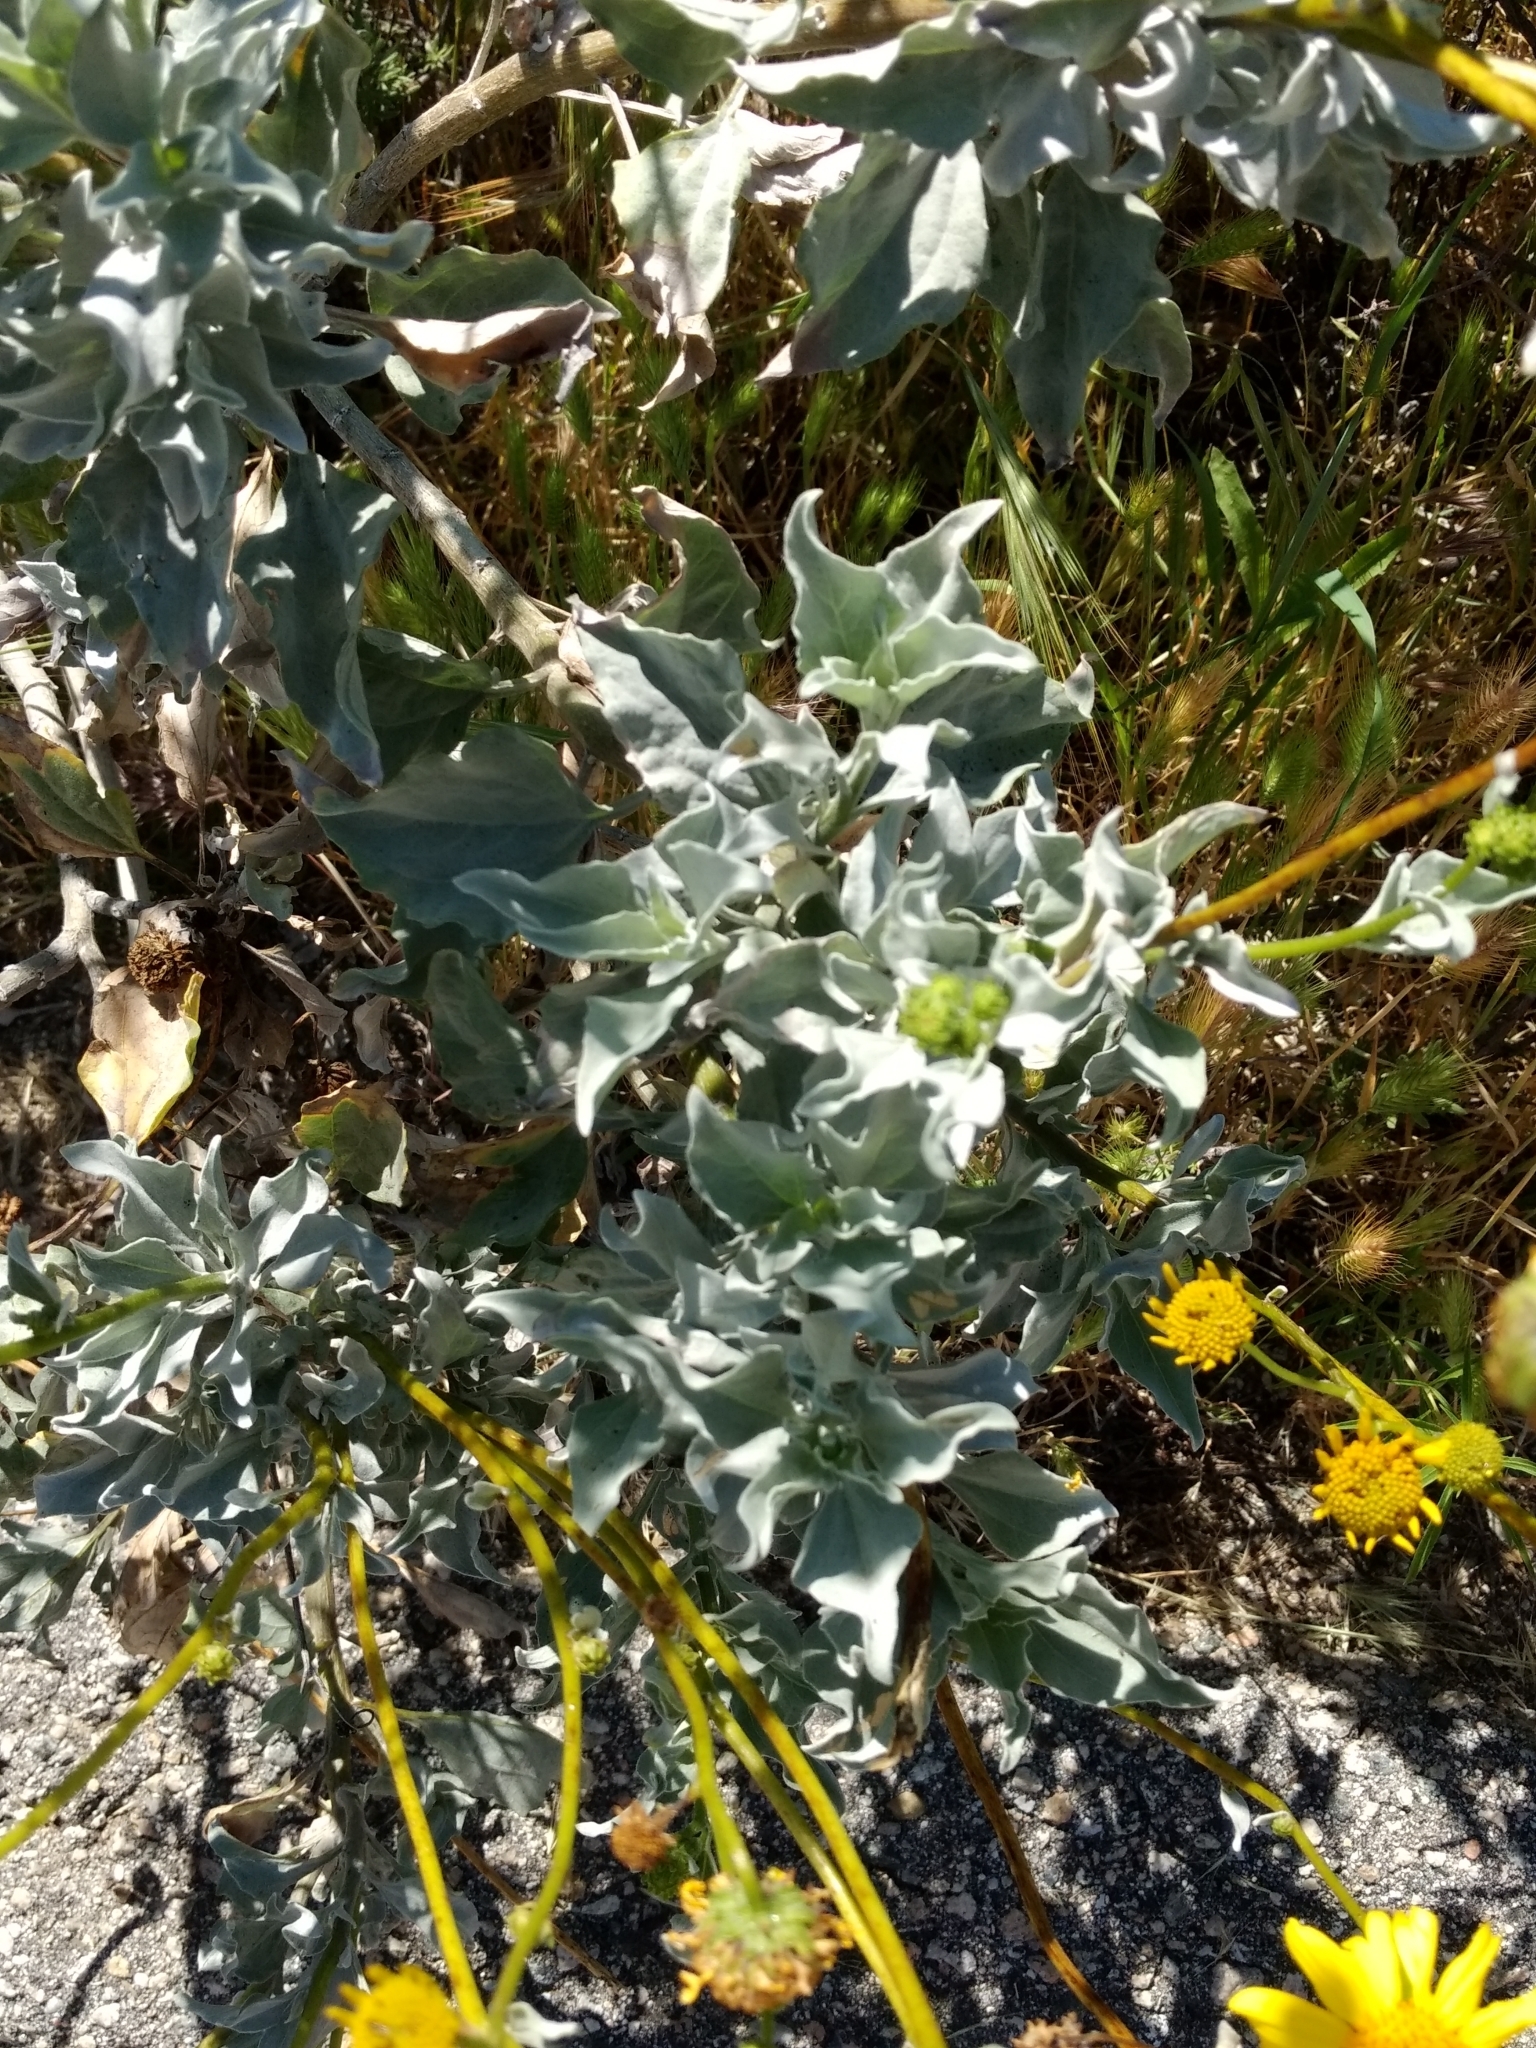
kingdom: Plantae
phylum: Tracheophyta
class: Magnoliopsida
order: Asterales
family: Asteraceae
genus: Encelia
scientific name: Encelia farinosa
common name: Brittlebush
